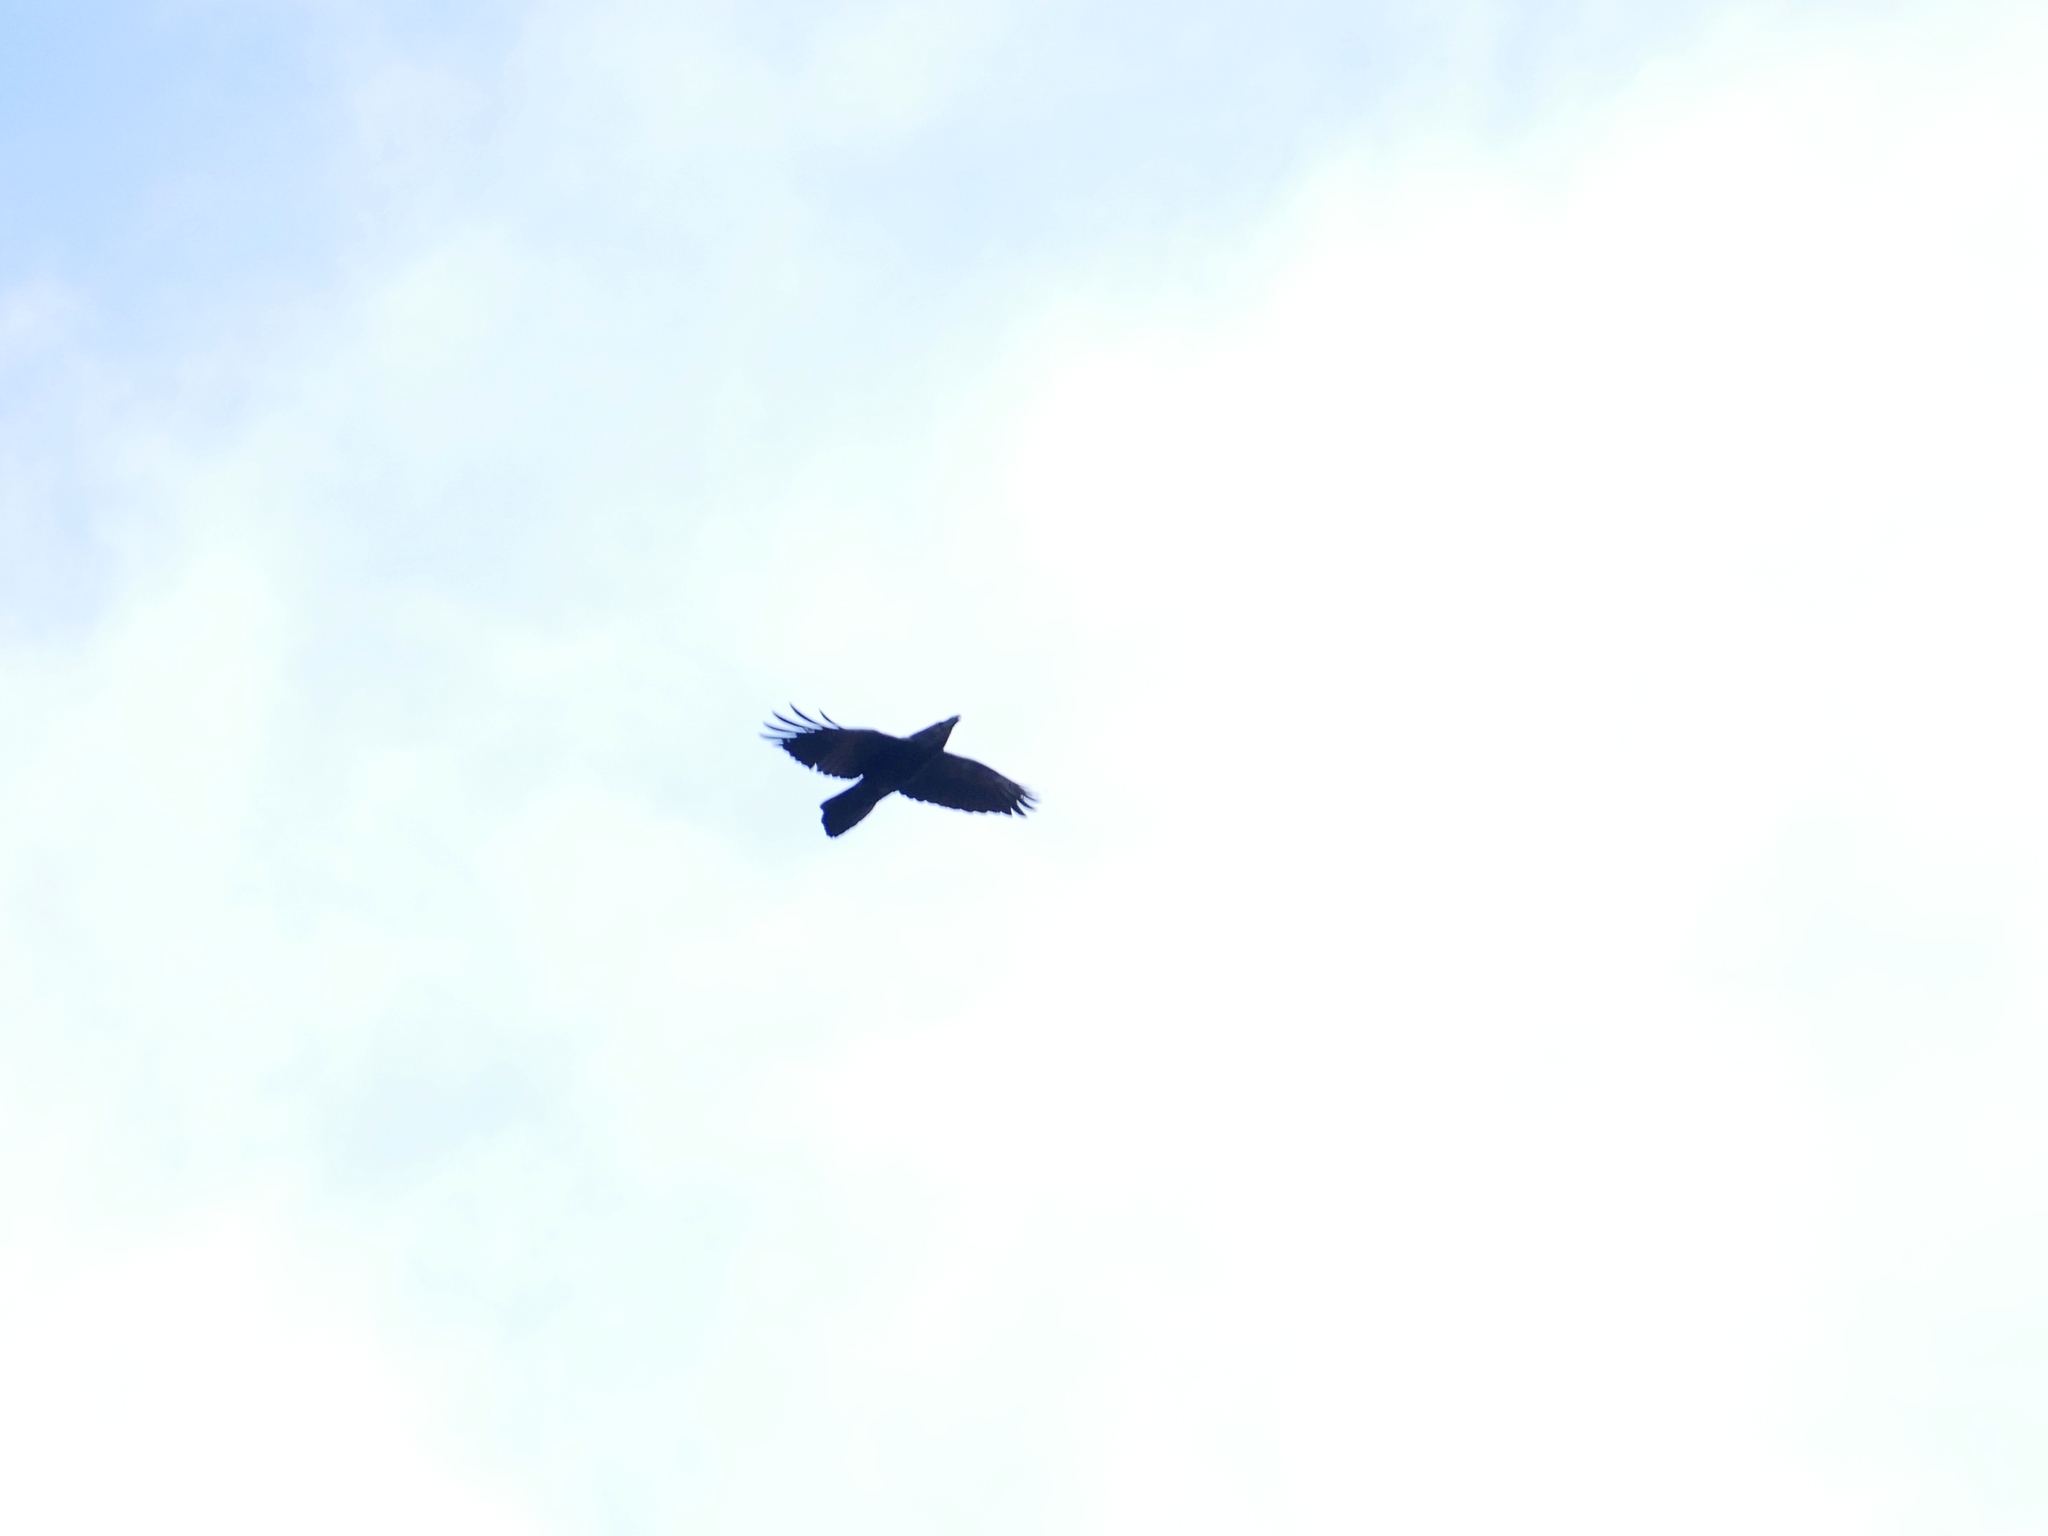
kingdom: Animalia
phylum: Chordata
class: Aves
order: Passeriformes
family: Corvidae
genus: Corvus
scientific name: Corvus corax
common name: Common raven
